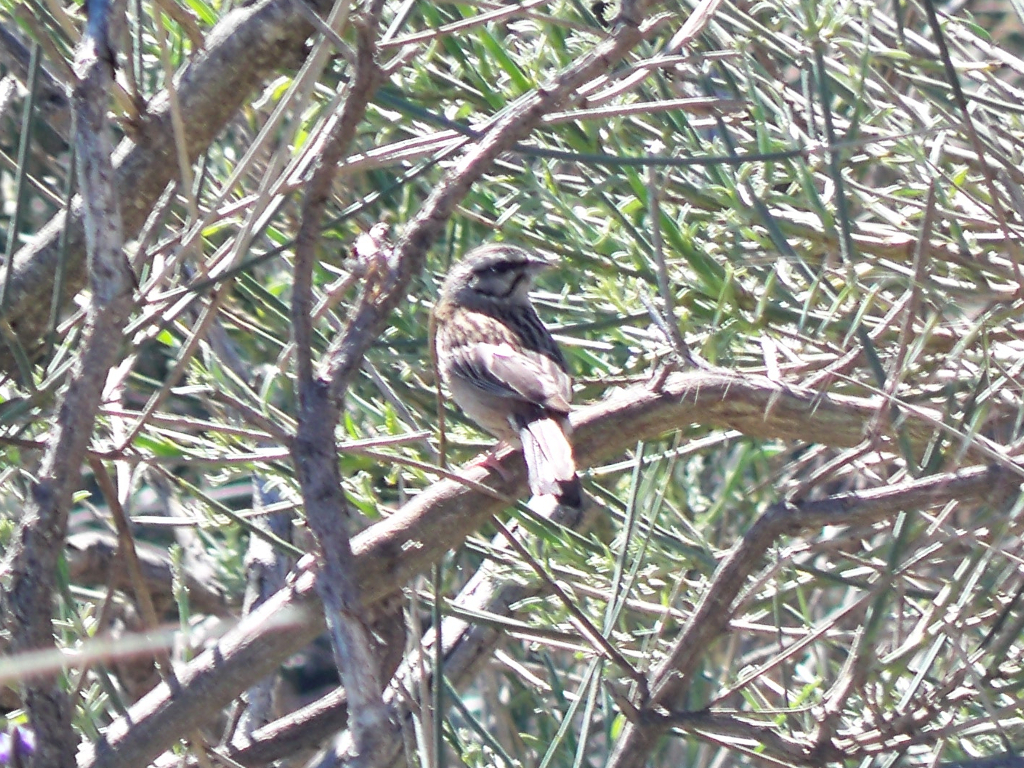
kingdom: Animalia
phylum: Chordata
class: Aves
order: Passeriformes
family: Emberizidae
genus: Emberiza
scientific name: Emberiza cia
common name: Rock bunting
